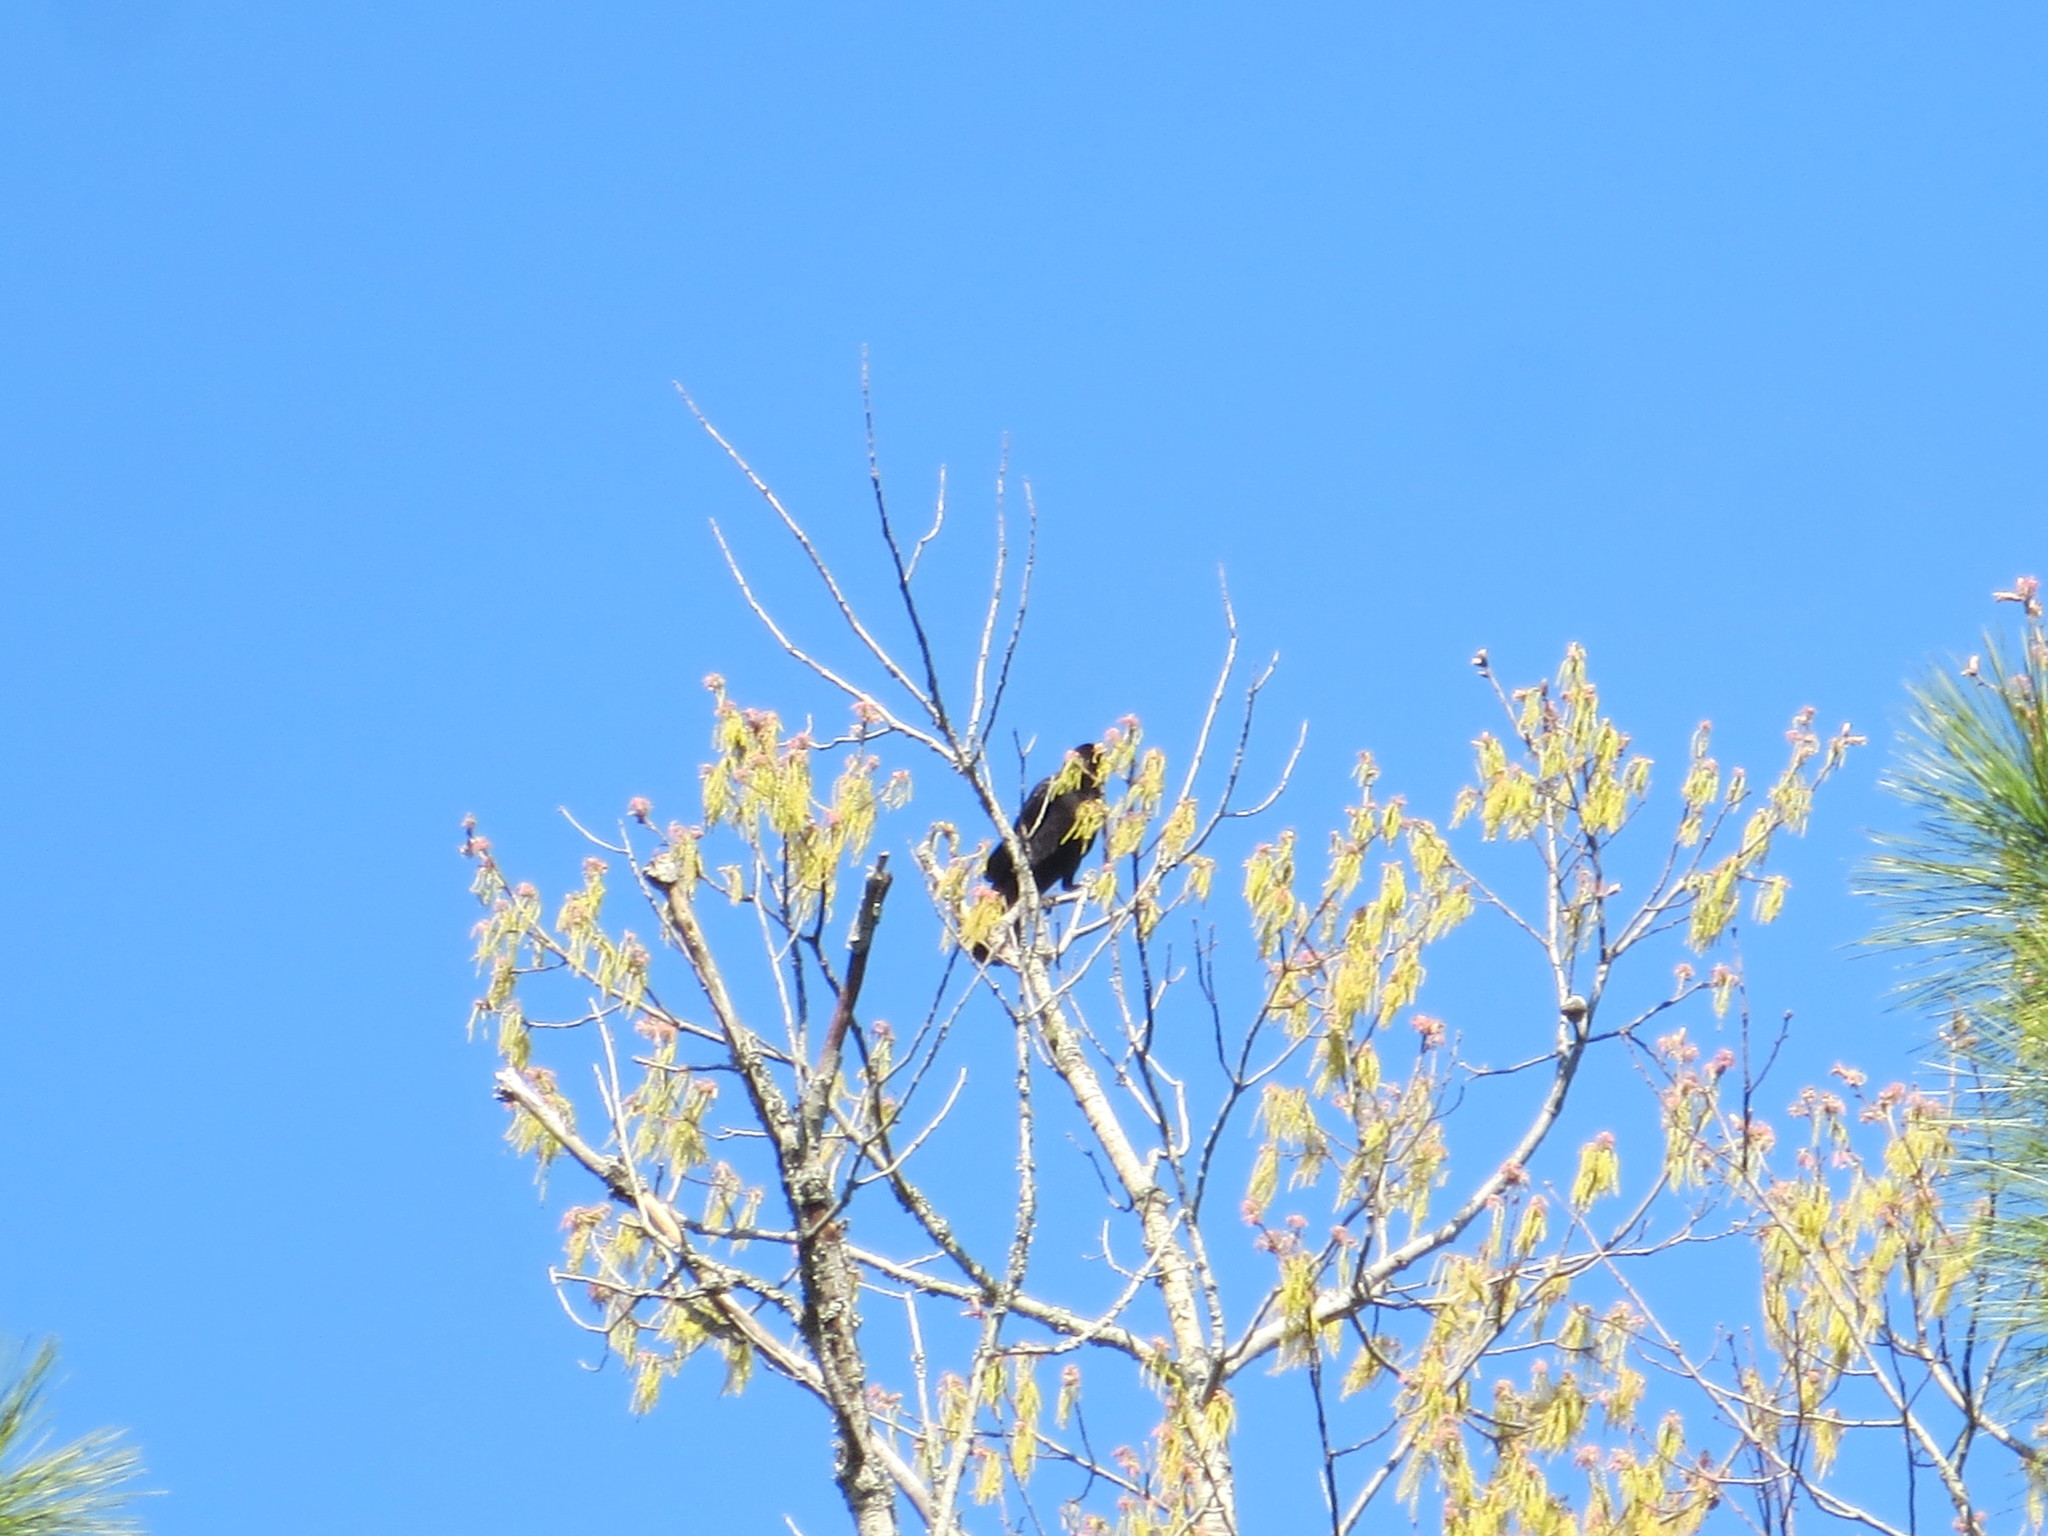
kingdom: Animalia
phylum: Chordata
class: Aves
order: Passeriformes
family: Corvidae
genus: Corvus
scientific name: Corvus brachyrhynchos
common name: American crow
